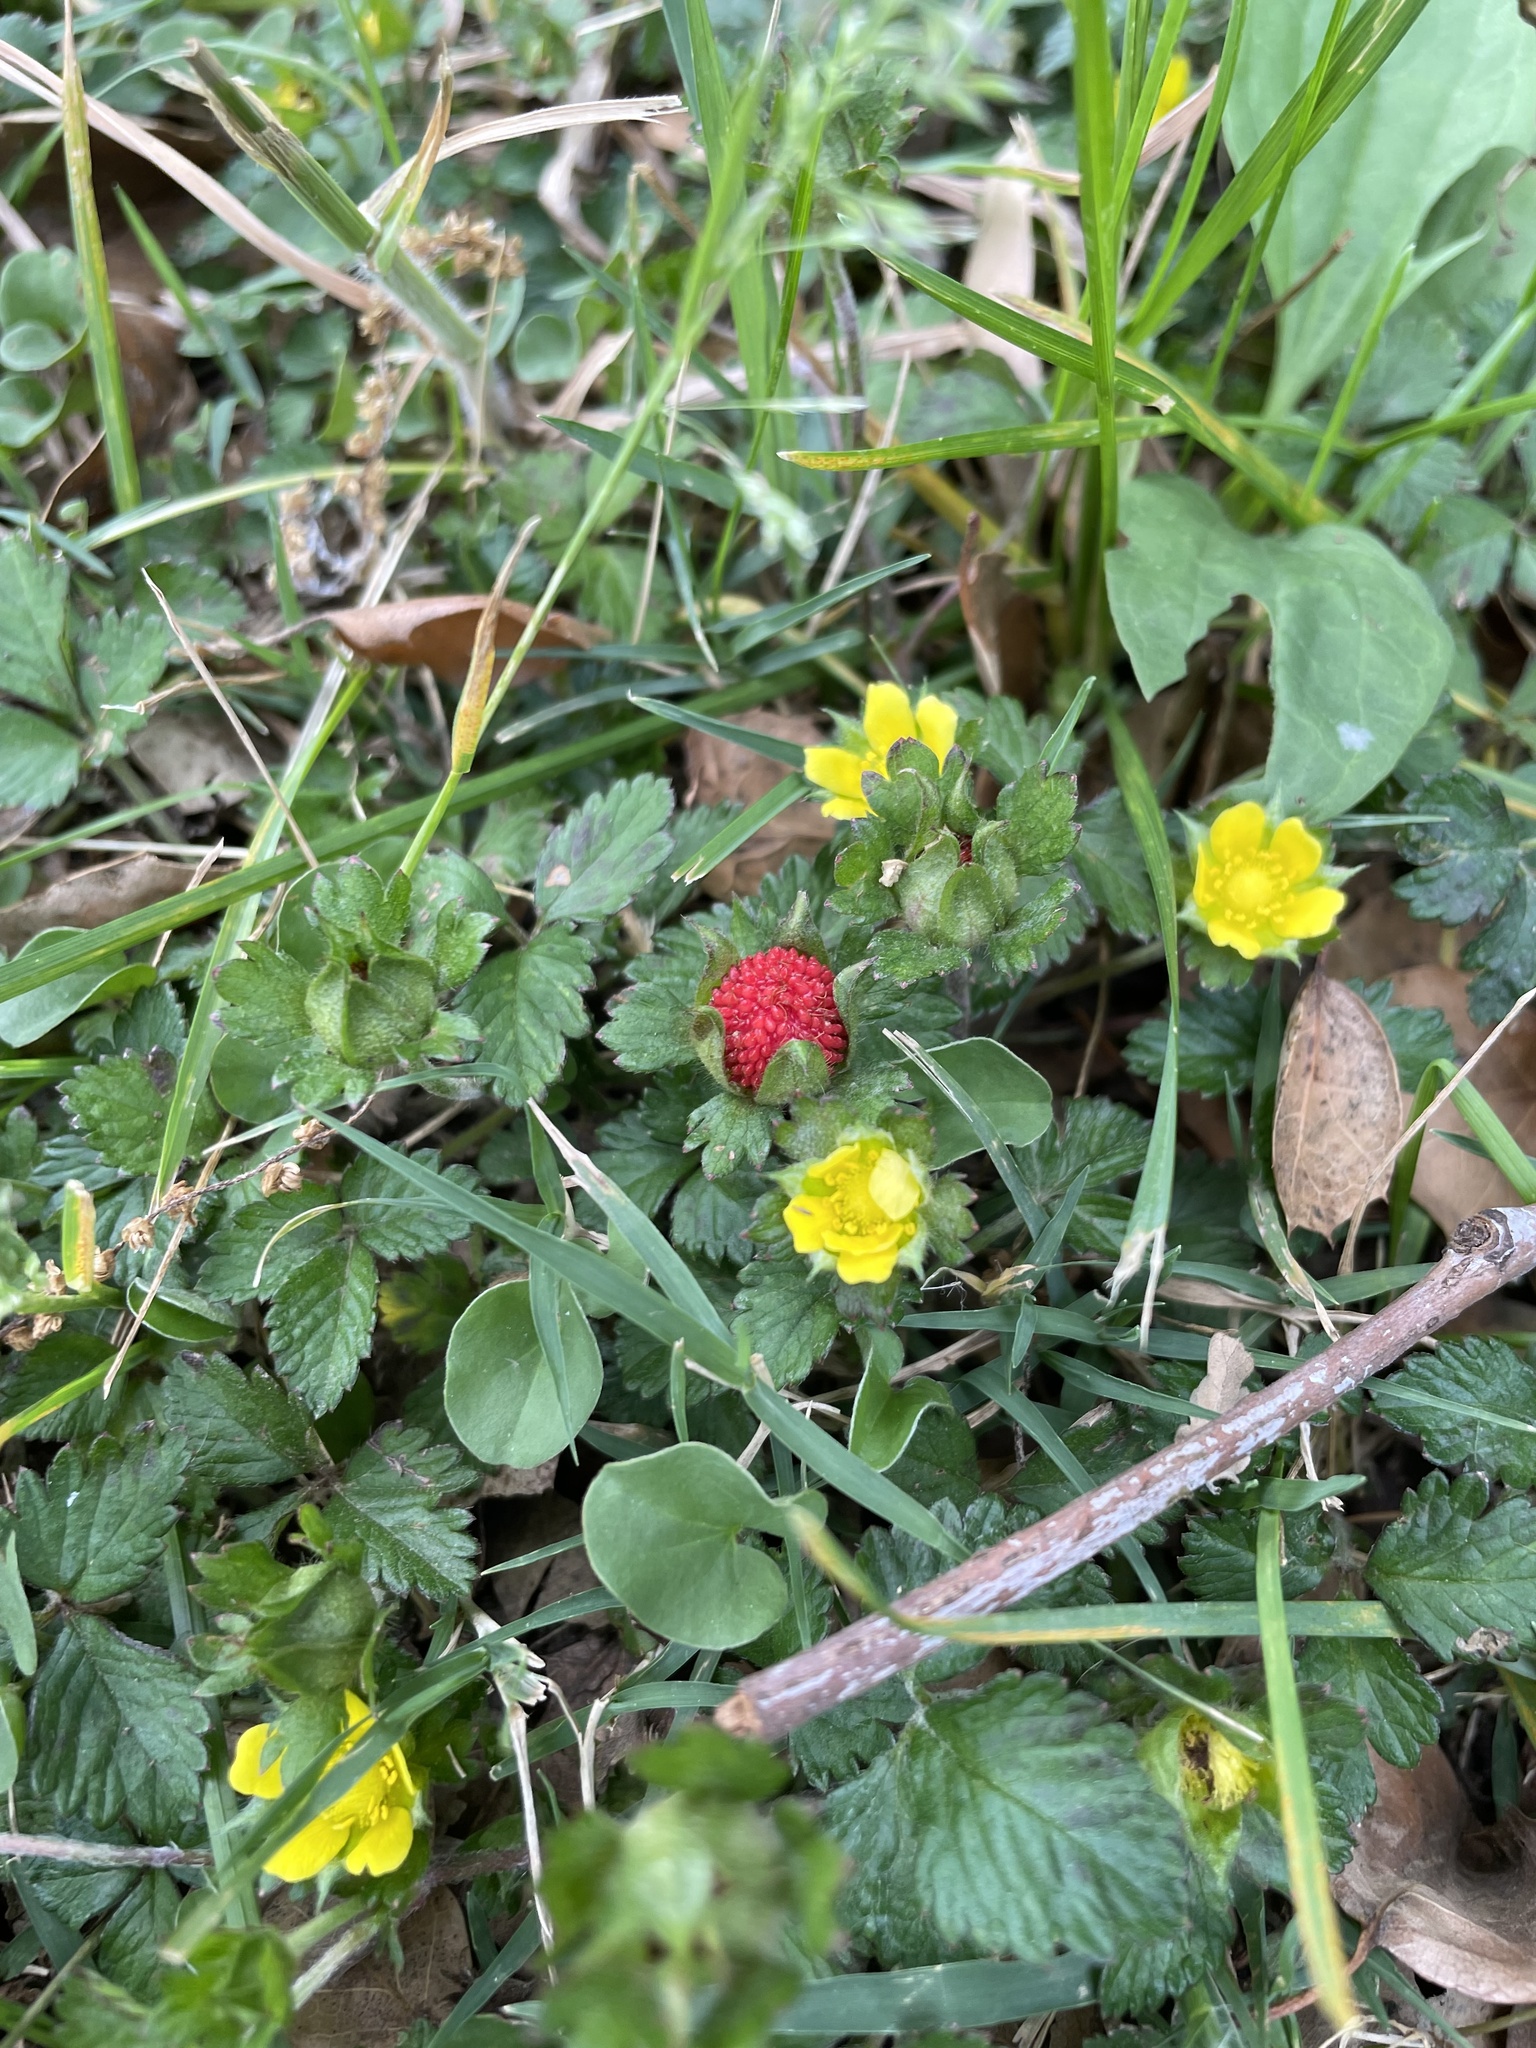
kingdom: Plantae
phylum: Tracheophyta
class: Magnoliopsida
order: Rosales
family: Rosaceae
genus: Potentilla
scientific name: Potentilla indica
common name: Yellow-flowered strawberry
